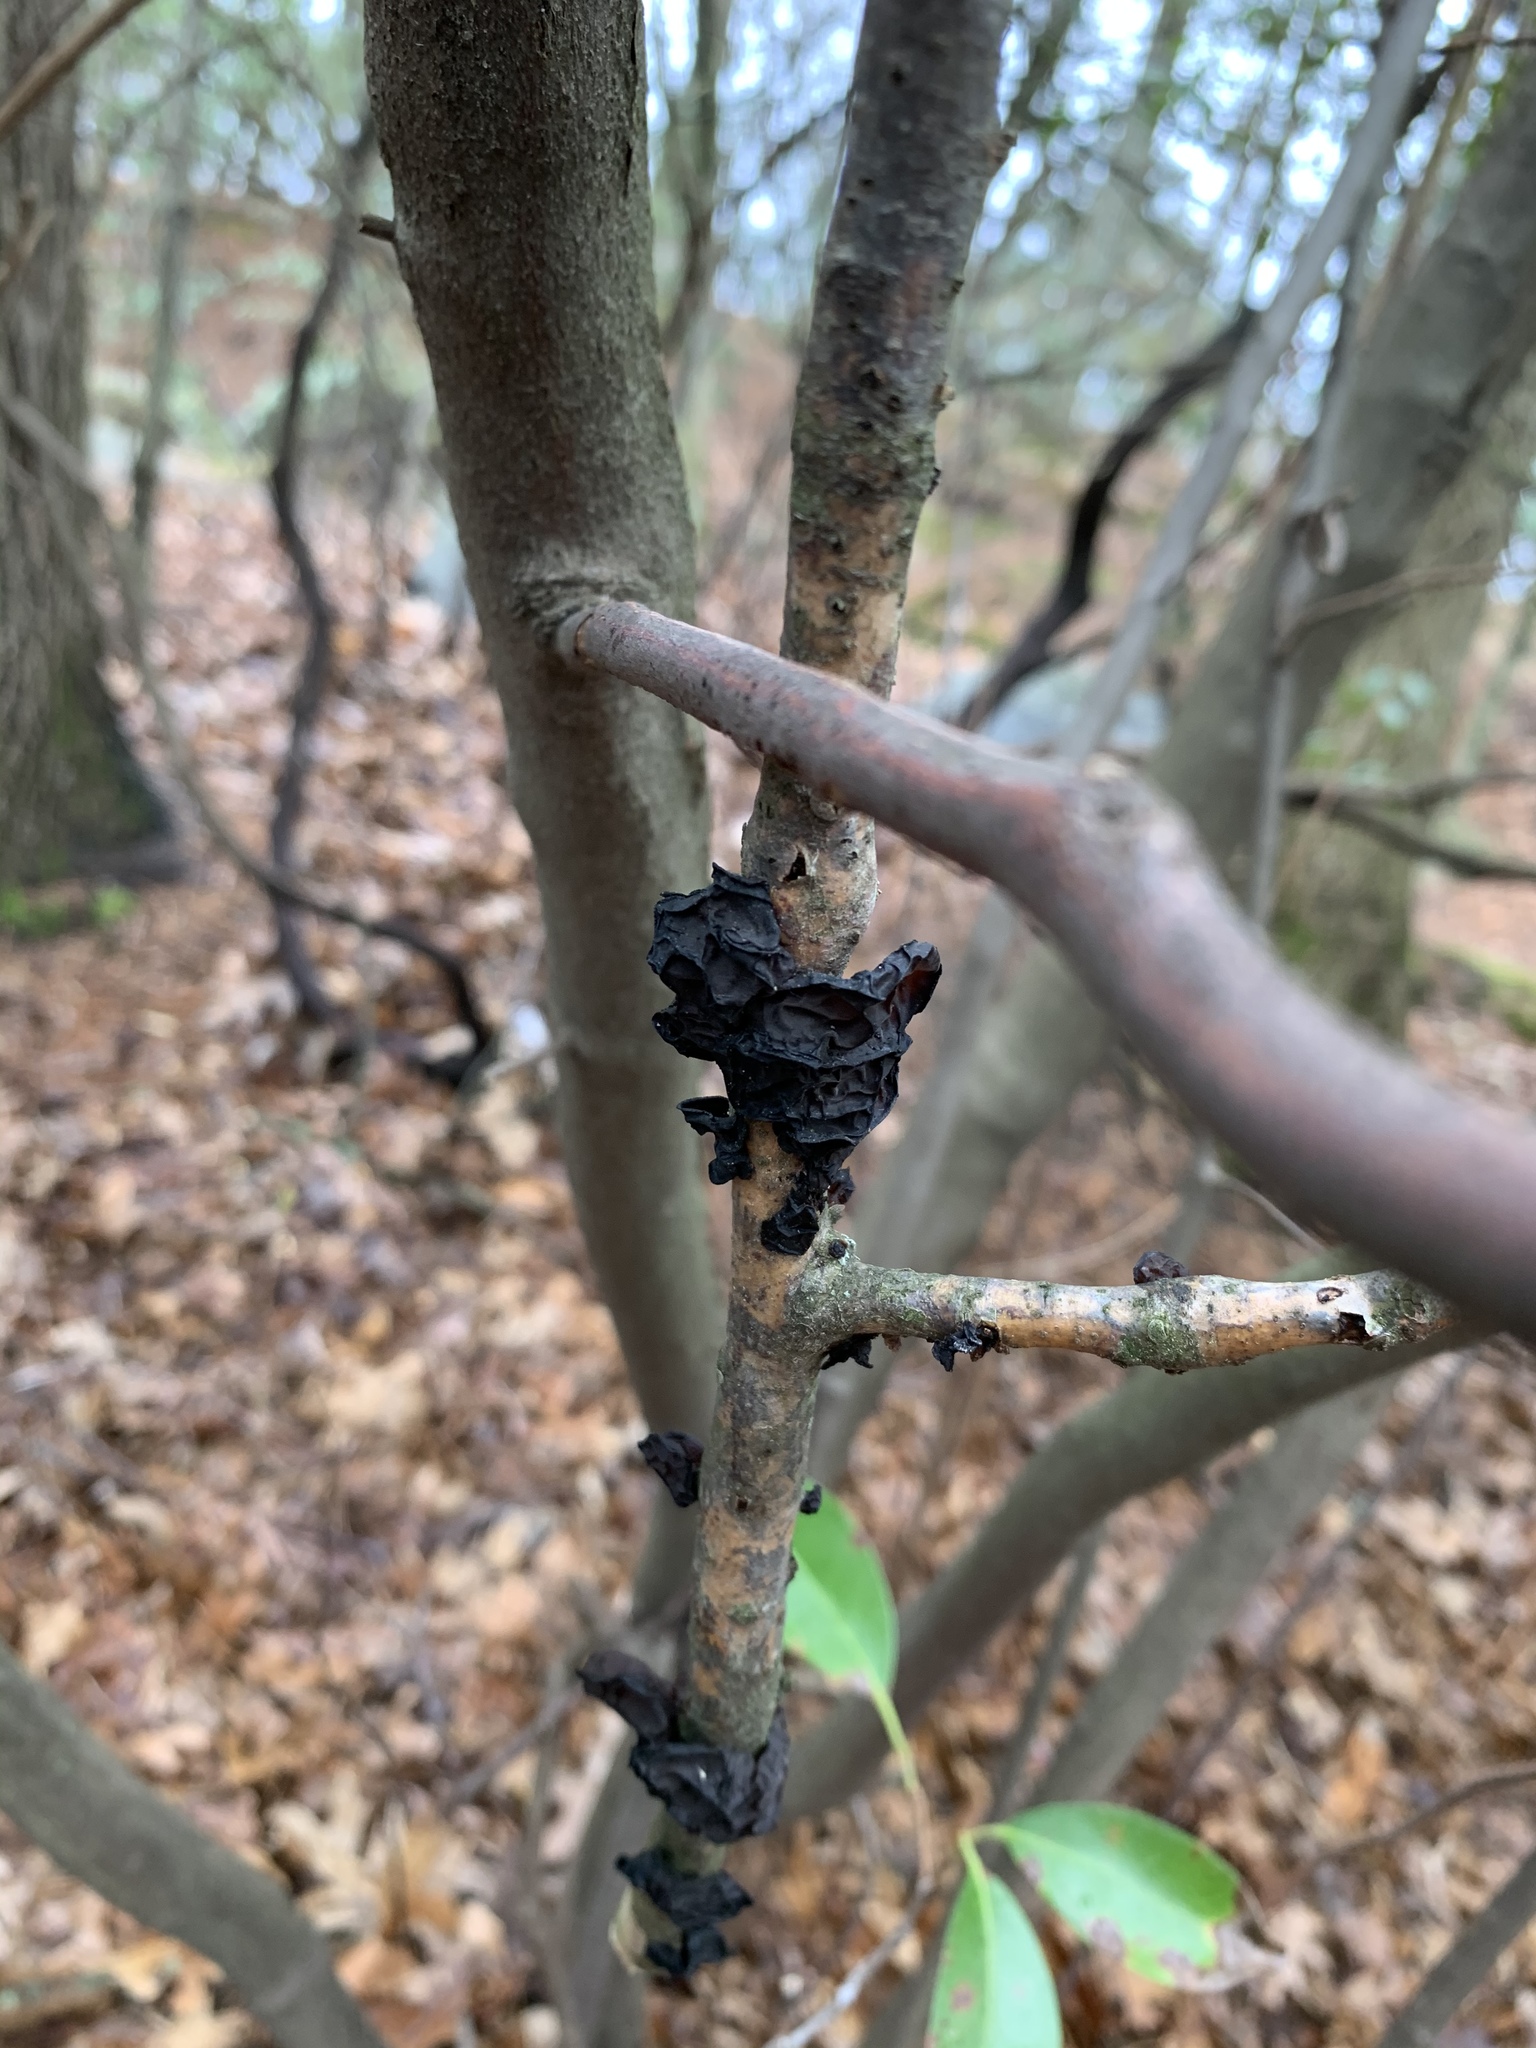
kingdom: Fungi
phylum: Basidiomycota
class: Agaricomycetes
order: Auriculariales
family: Auriculariaceae
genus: Exidia
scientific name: Exidia
